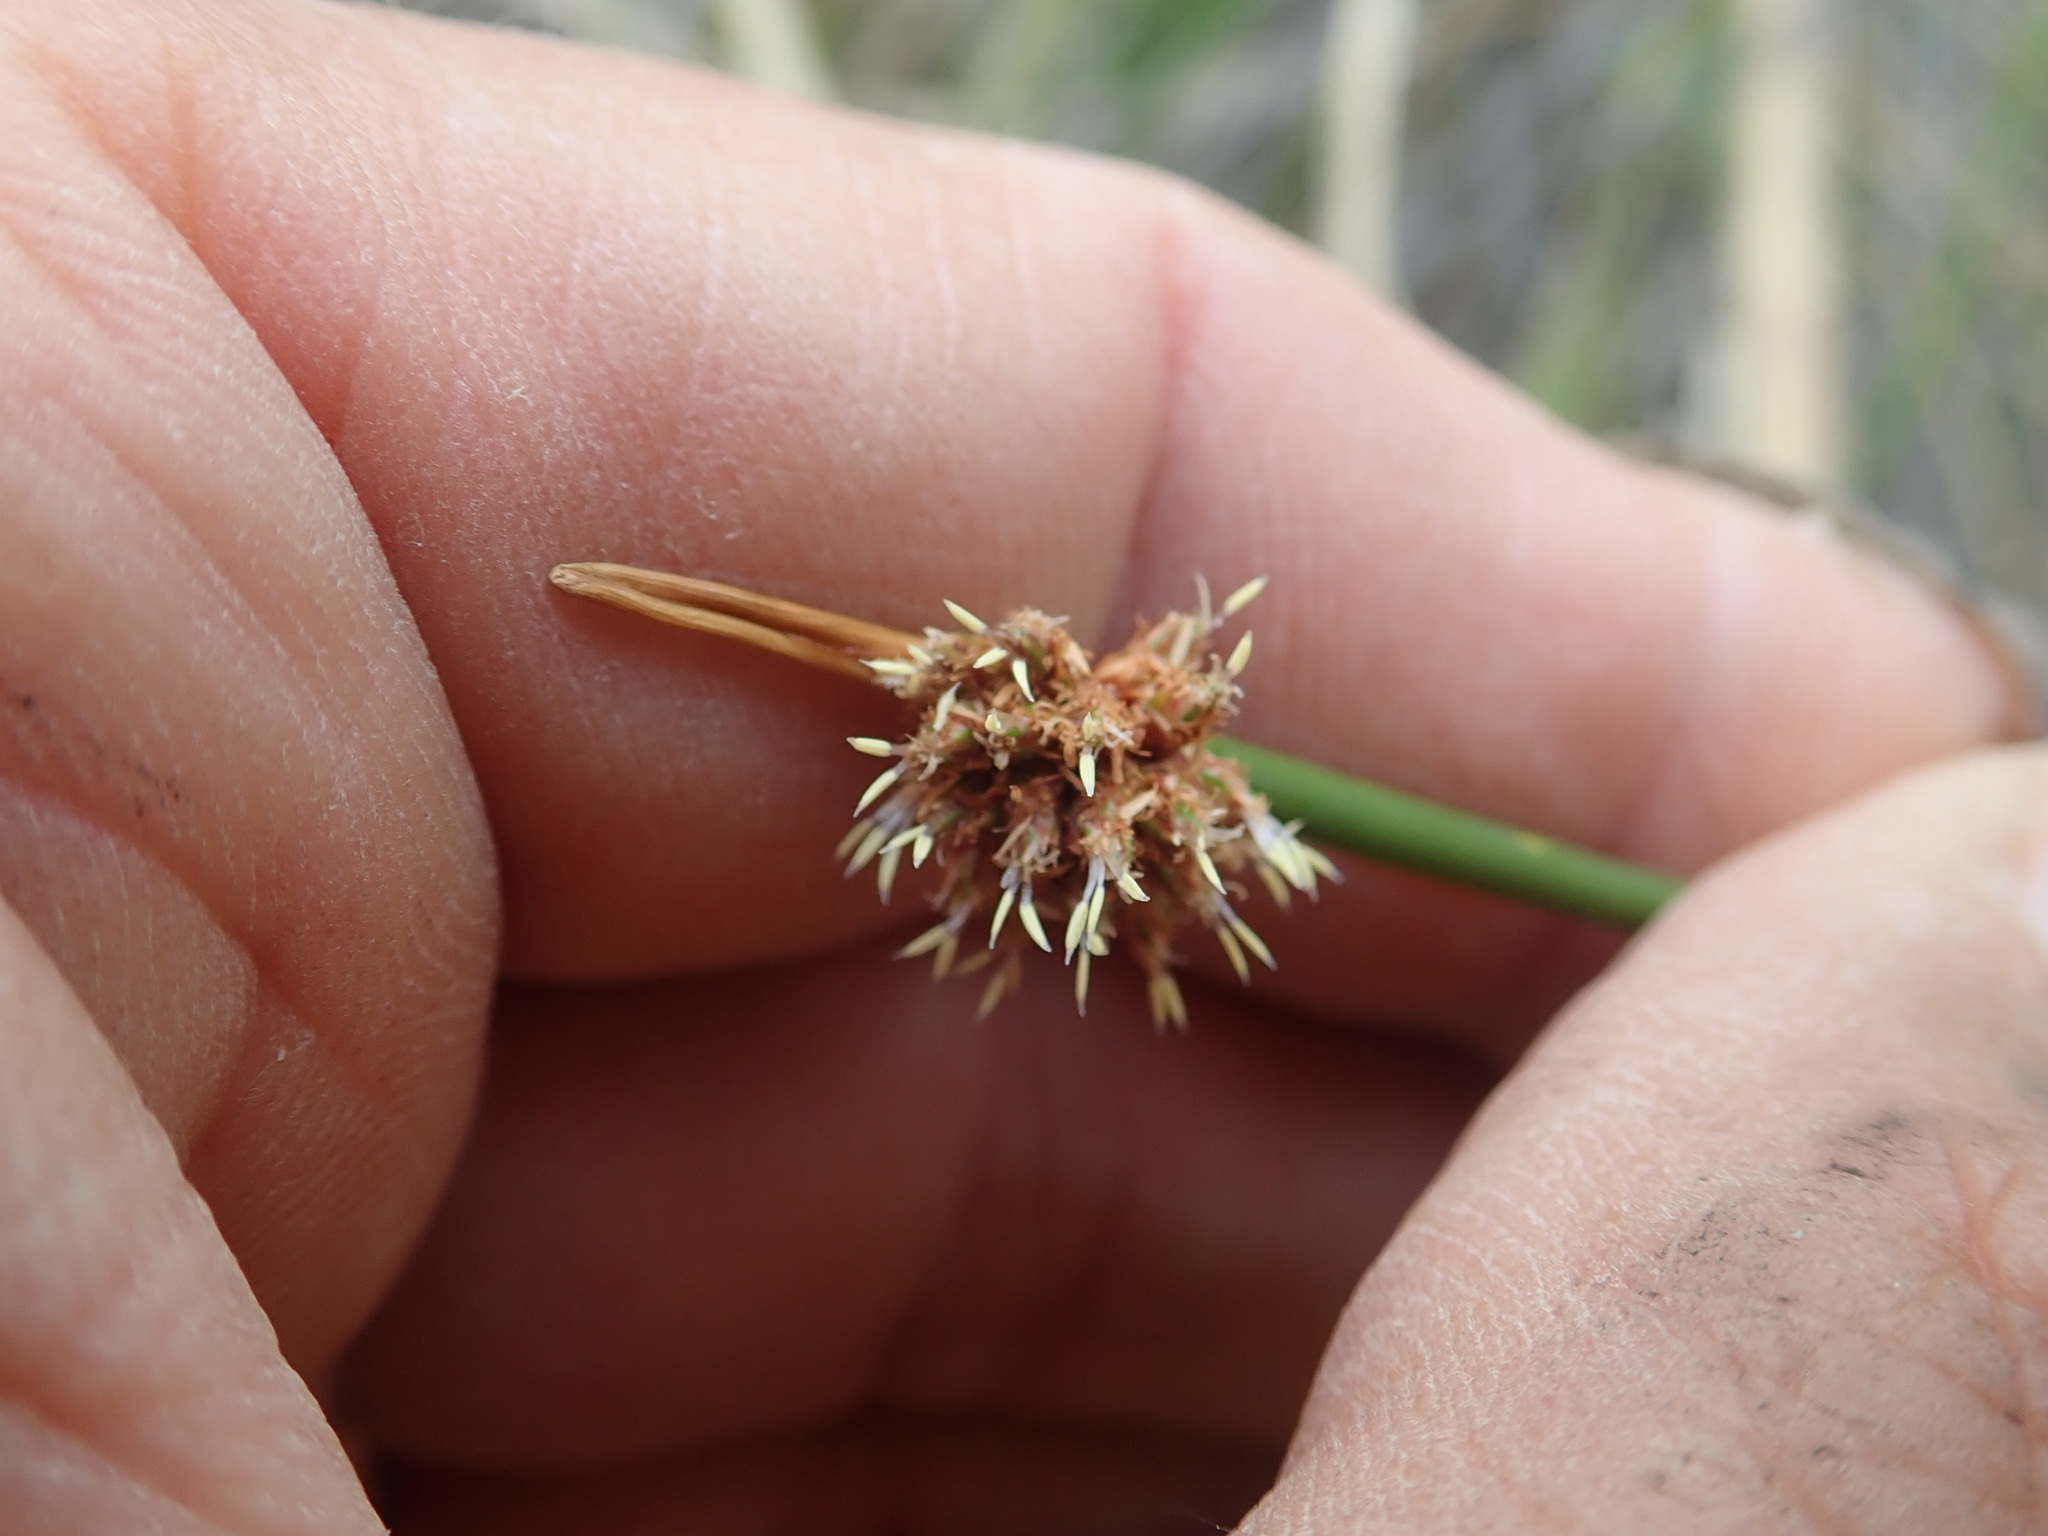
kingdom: Plantae
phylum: Tracheophyta
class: Liliopsida
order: Poales
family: Cyperaceae
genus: Ficinia
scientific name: Ficinia nodosa
